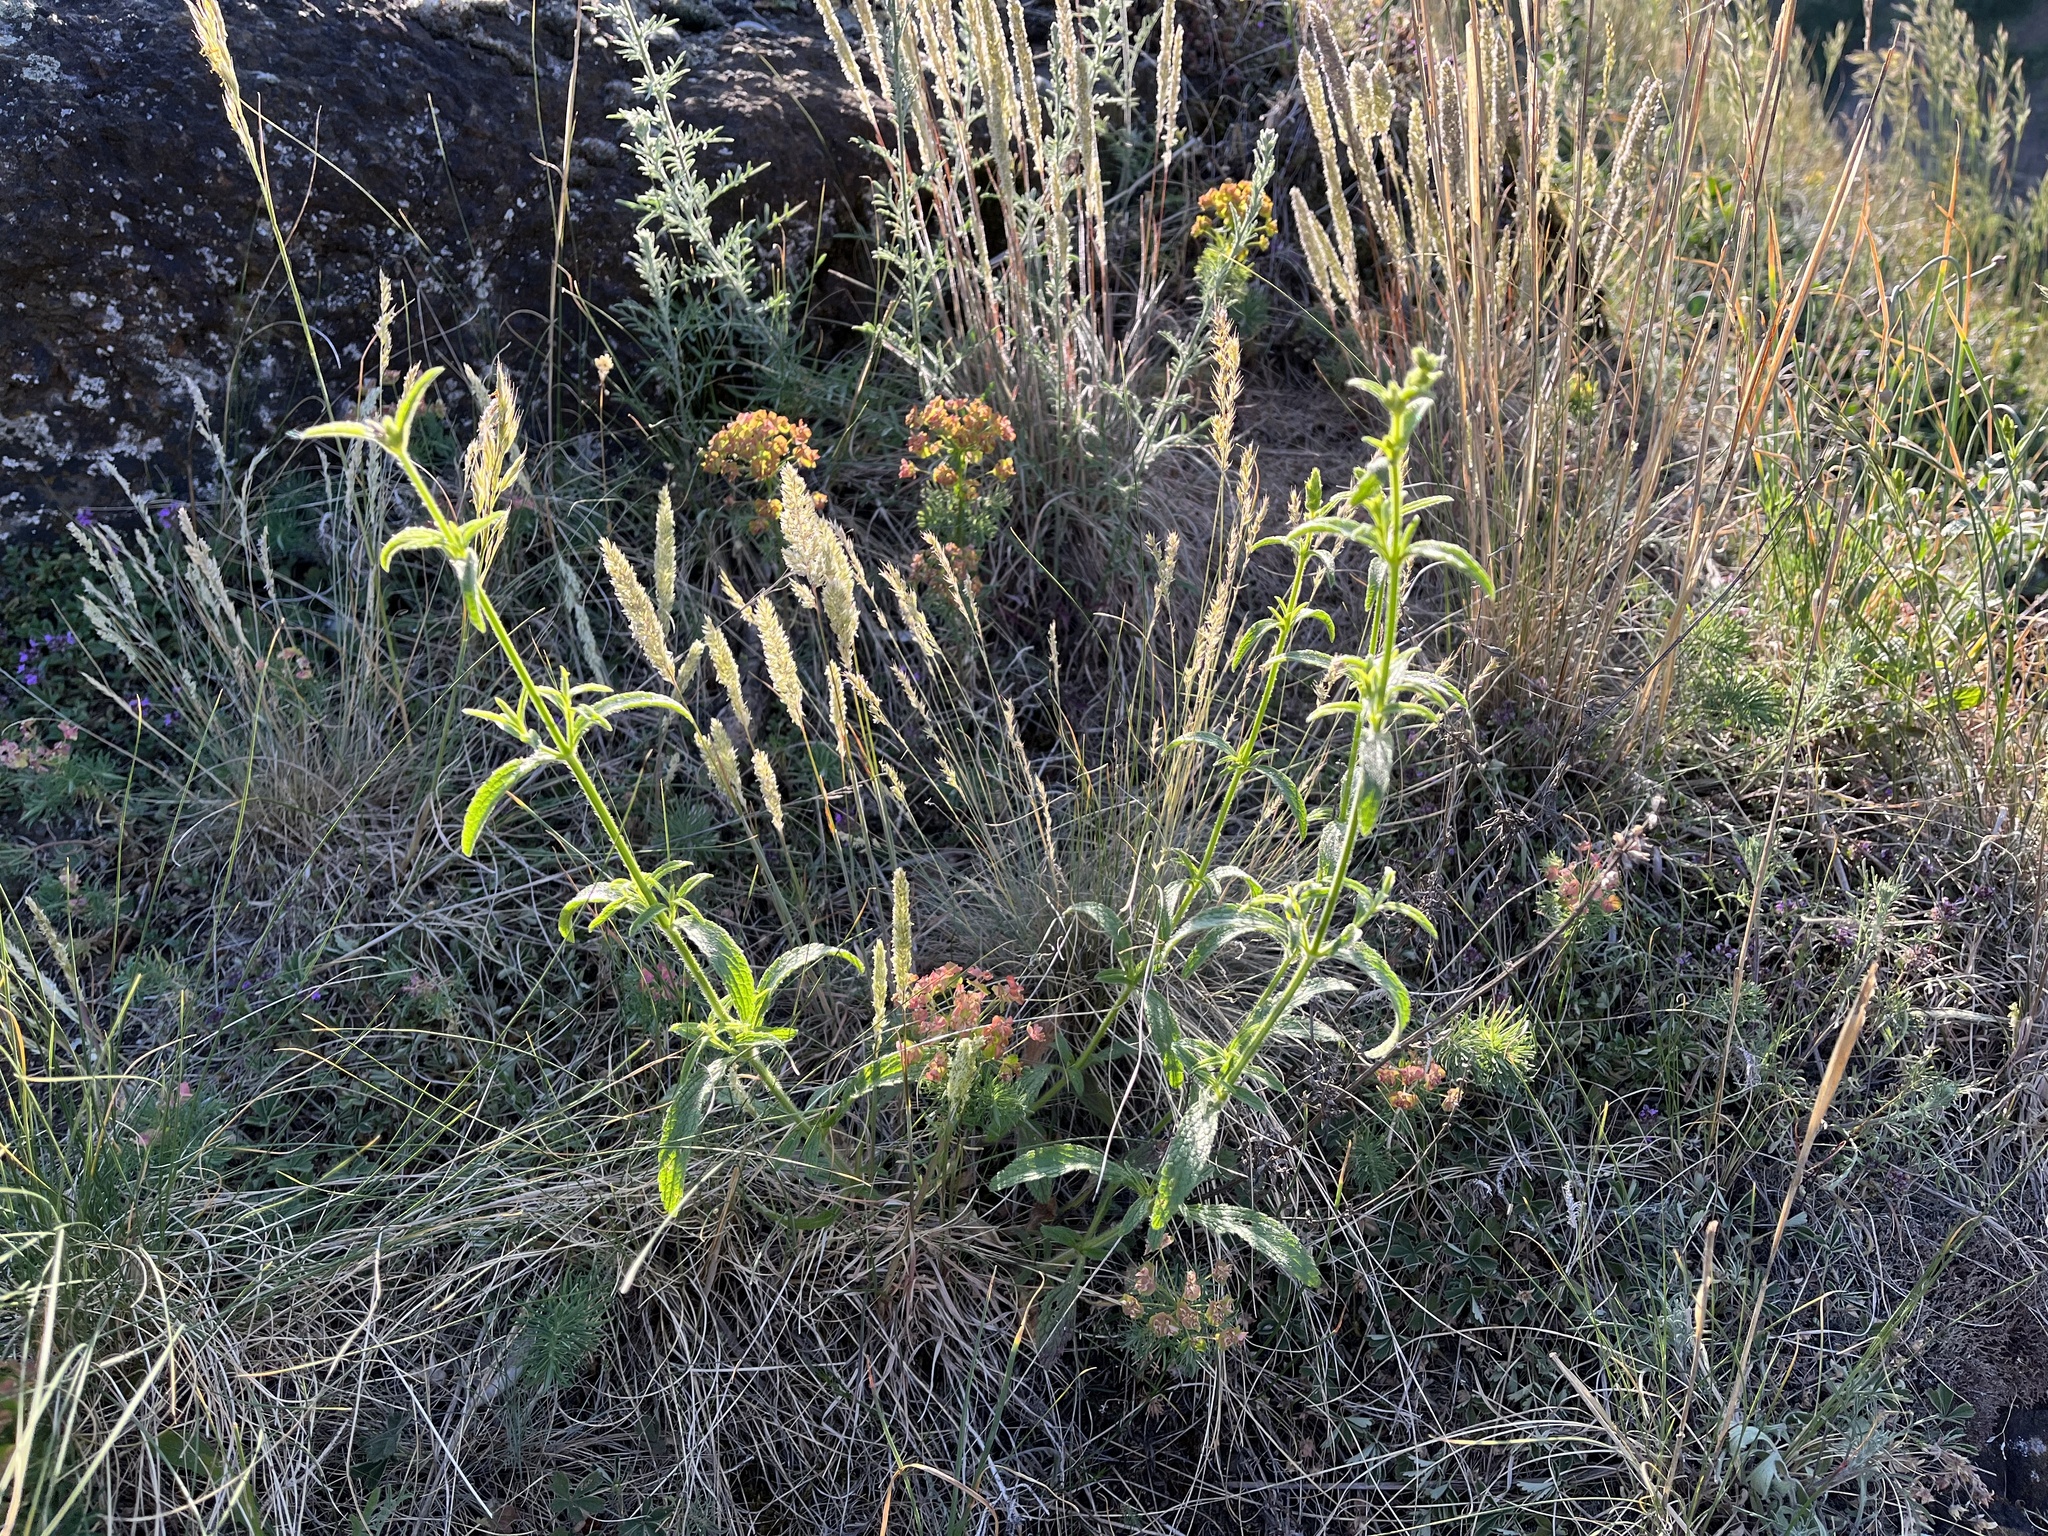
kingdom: Plantae
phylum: Tracheophyta
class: Magnoliopsida
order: Lamiales
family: Lamiaceae
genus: Stachys
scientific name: Stachys recta
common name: Perennial yellow-woundwort
